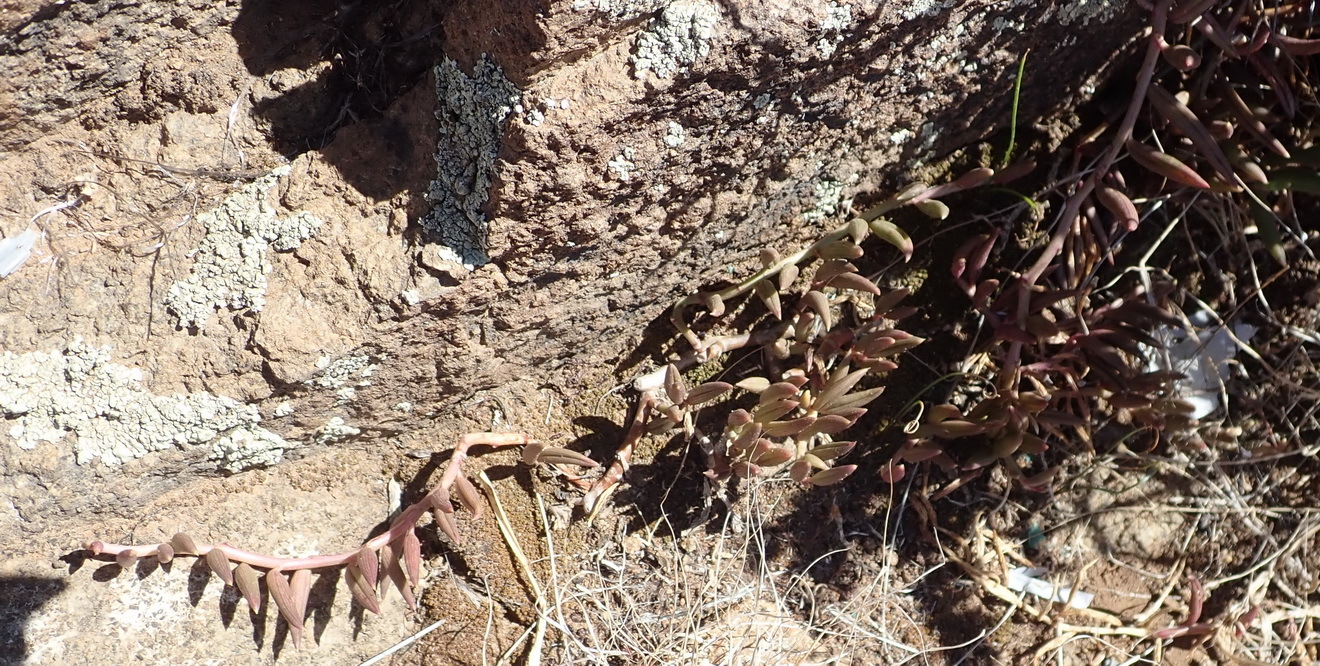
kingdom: Plantae
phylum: Tracheophyta
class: Magnoliopsida
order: Asterales
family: Asteraceae
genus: Curio
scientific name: Curio radicans
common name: Creeping-berry
